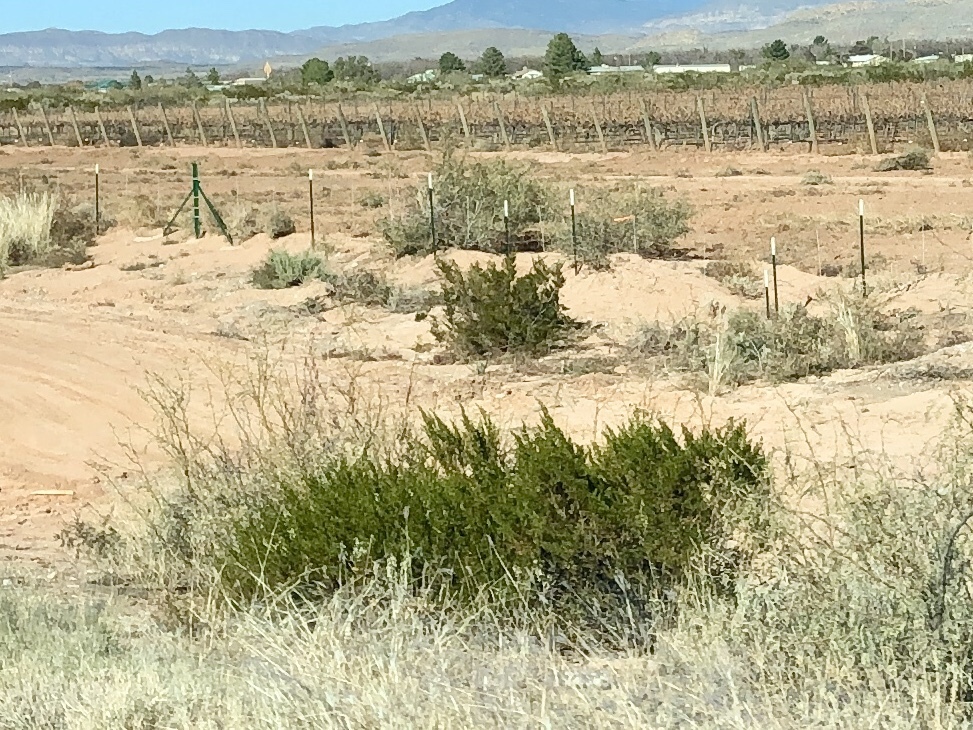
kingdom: Plantae
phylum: Tracheophyta
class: Magnoliopsida
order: Zygophyllales
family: Zygophyllaceae
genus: Larrea
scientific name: Larrea tridentata
